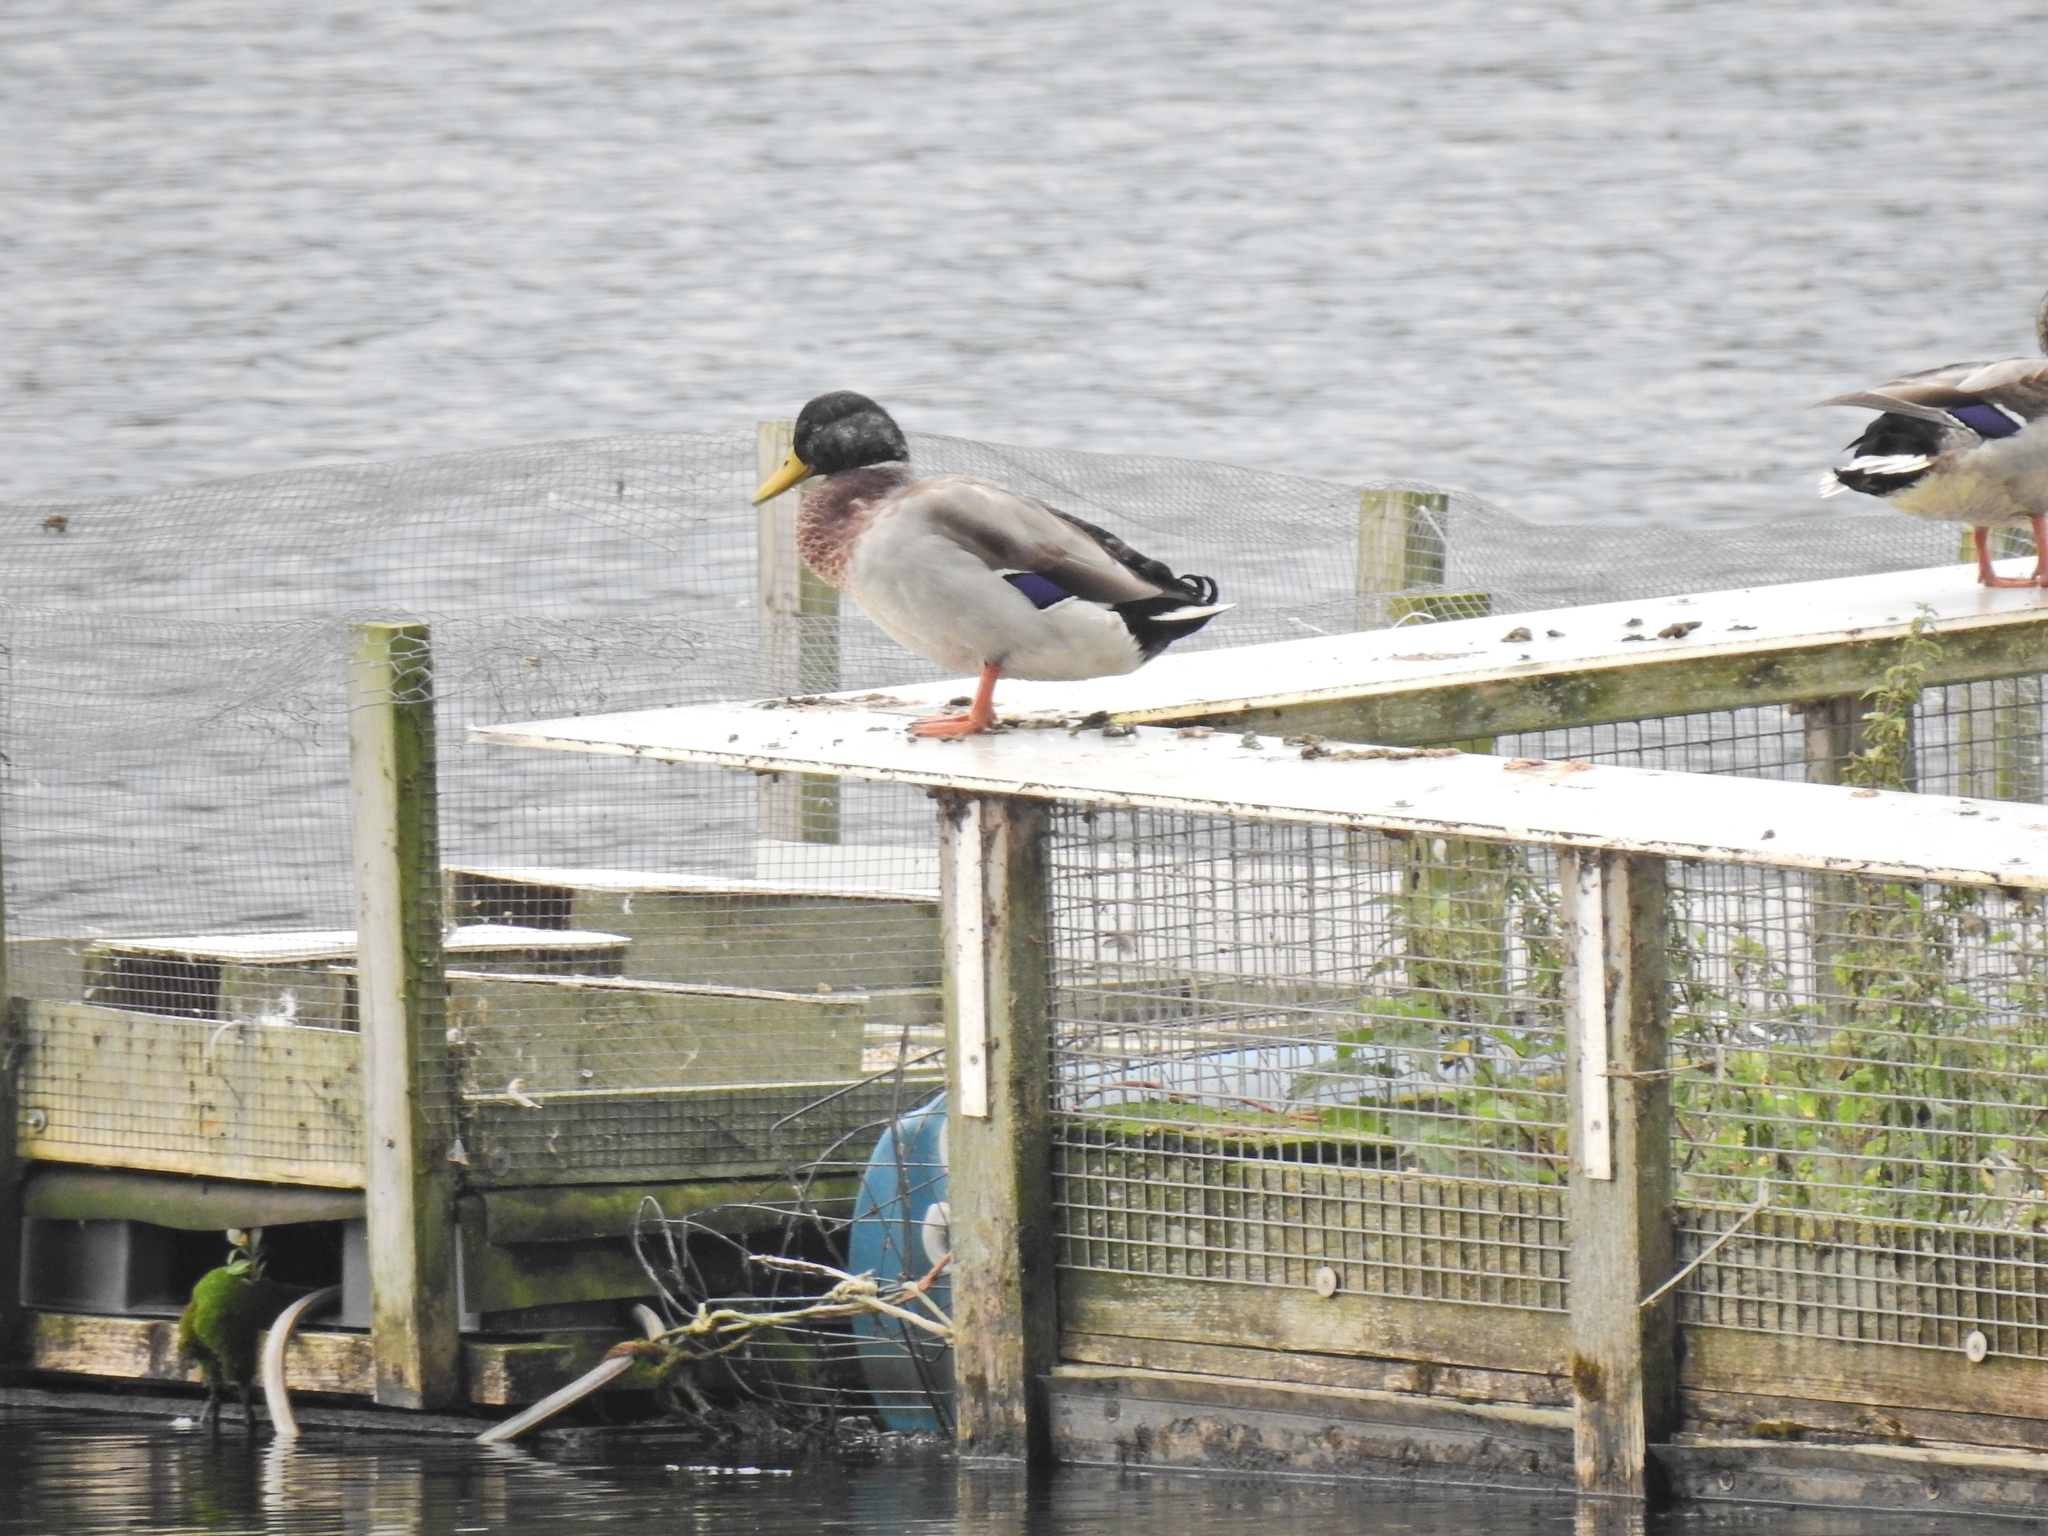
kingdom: Animalia
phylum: Chordata
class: Aves
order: Anseriformes
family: Anatidae
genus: Anas
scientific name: Anas platyrhynchos
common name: Mallard
